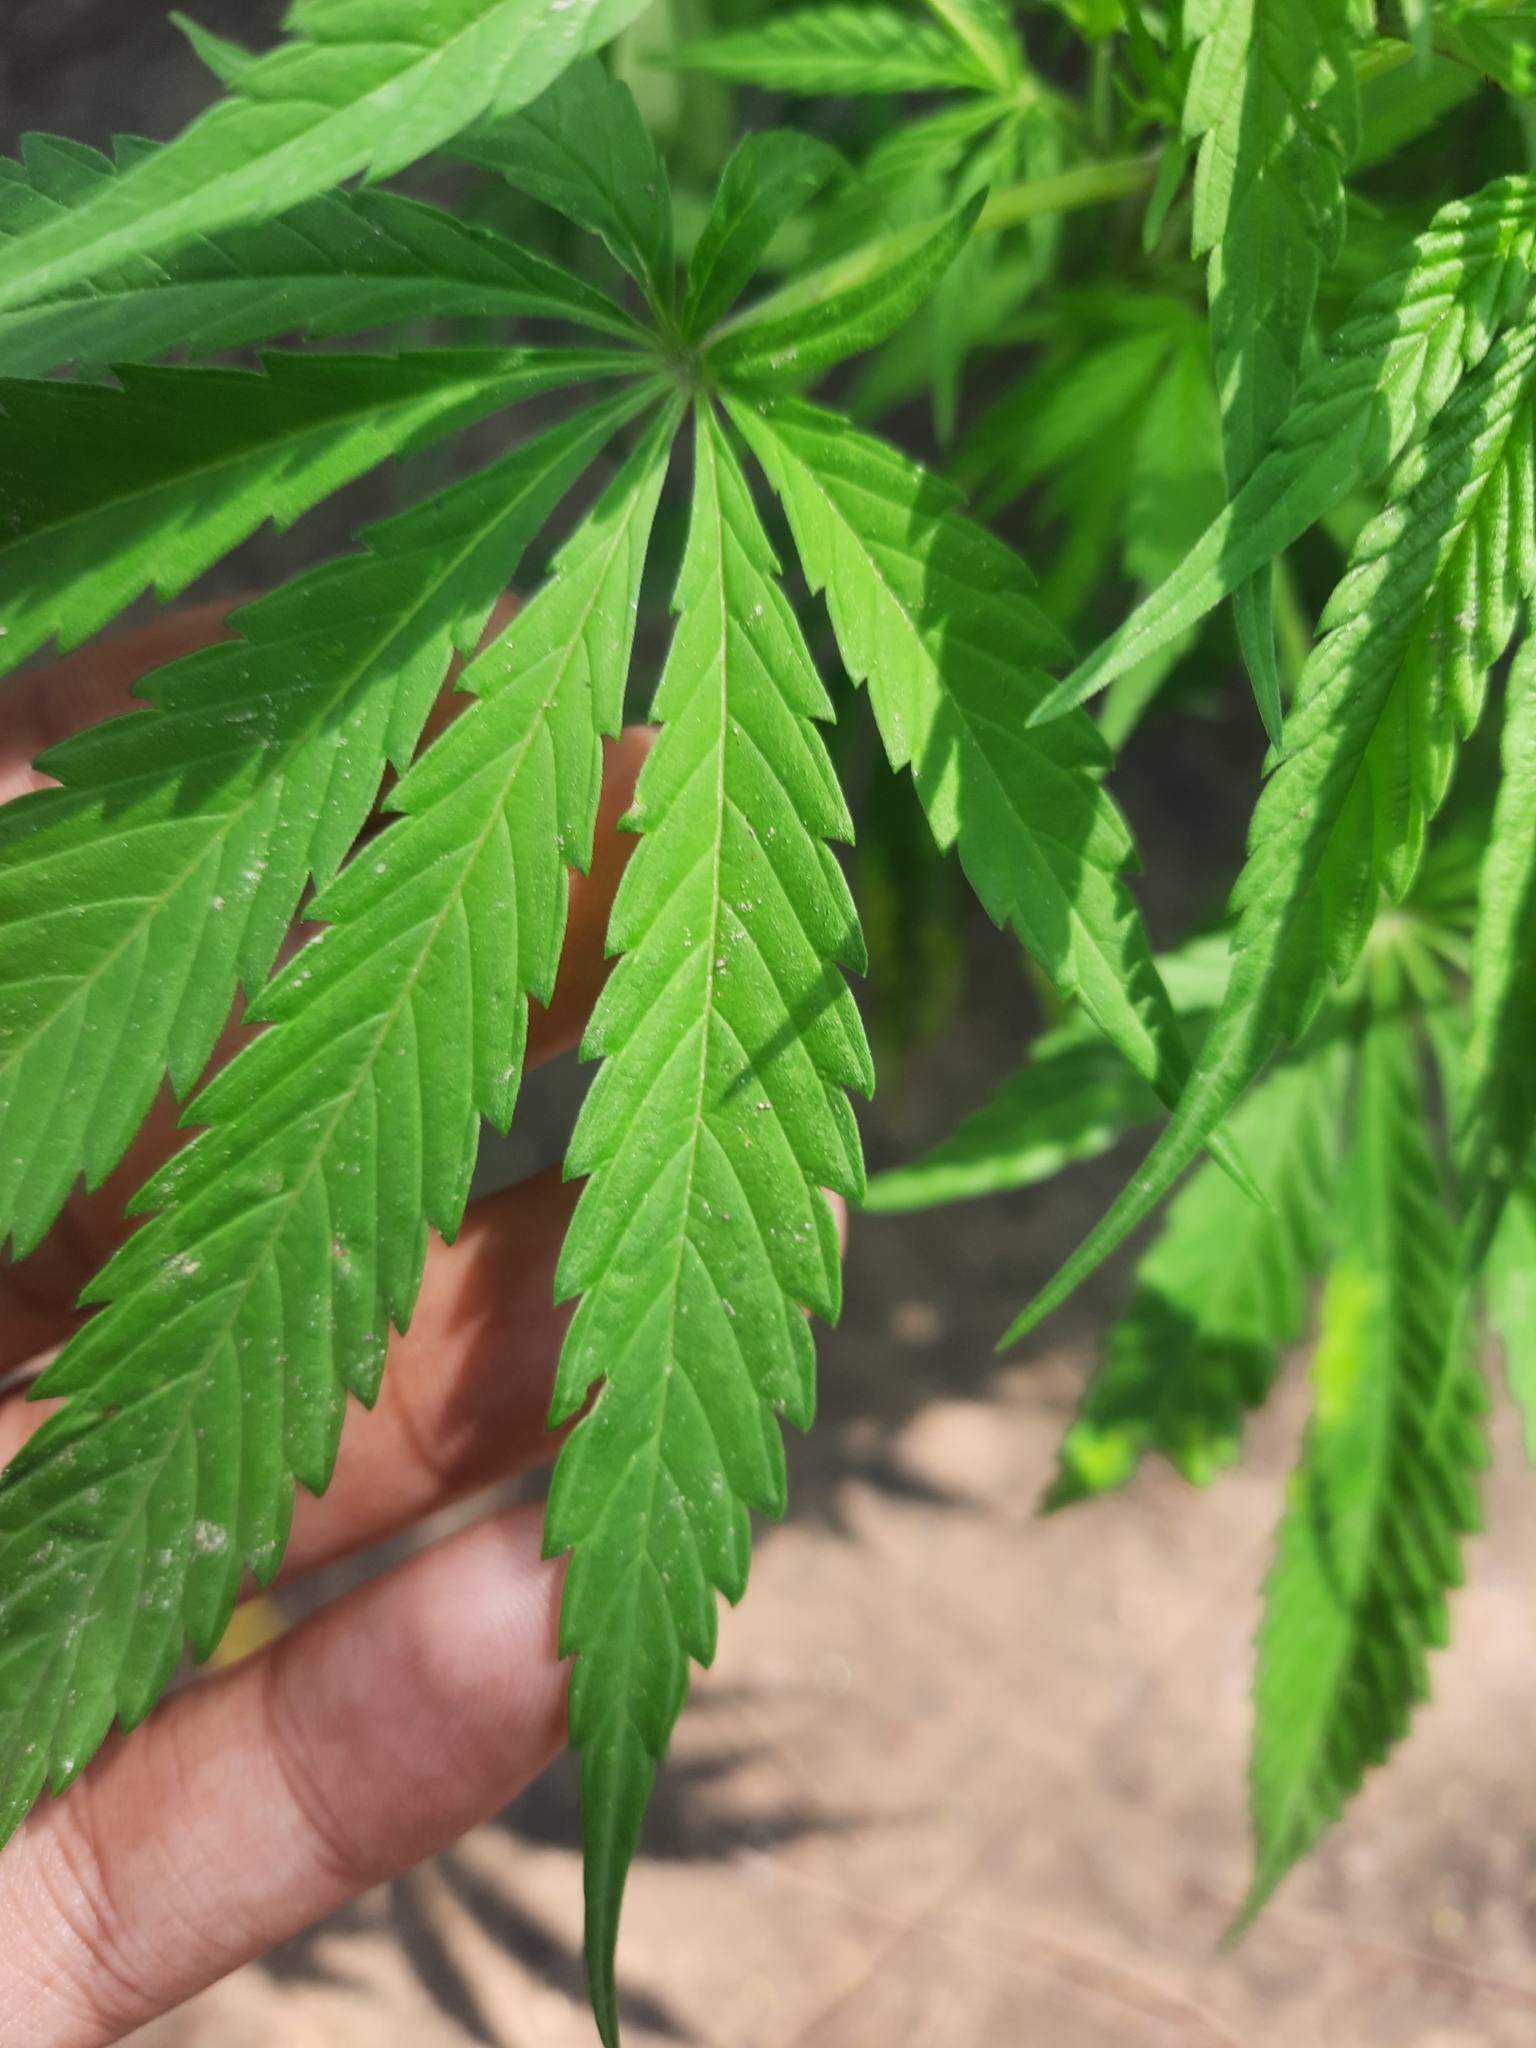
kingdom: Plantae
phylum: Tracheophyta
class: Magnoliopsida
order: Rosales
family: Cannabaceae
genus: Cannabis
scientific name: Cannabis sativa
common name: Hemp
